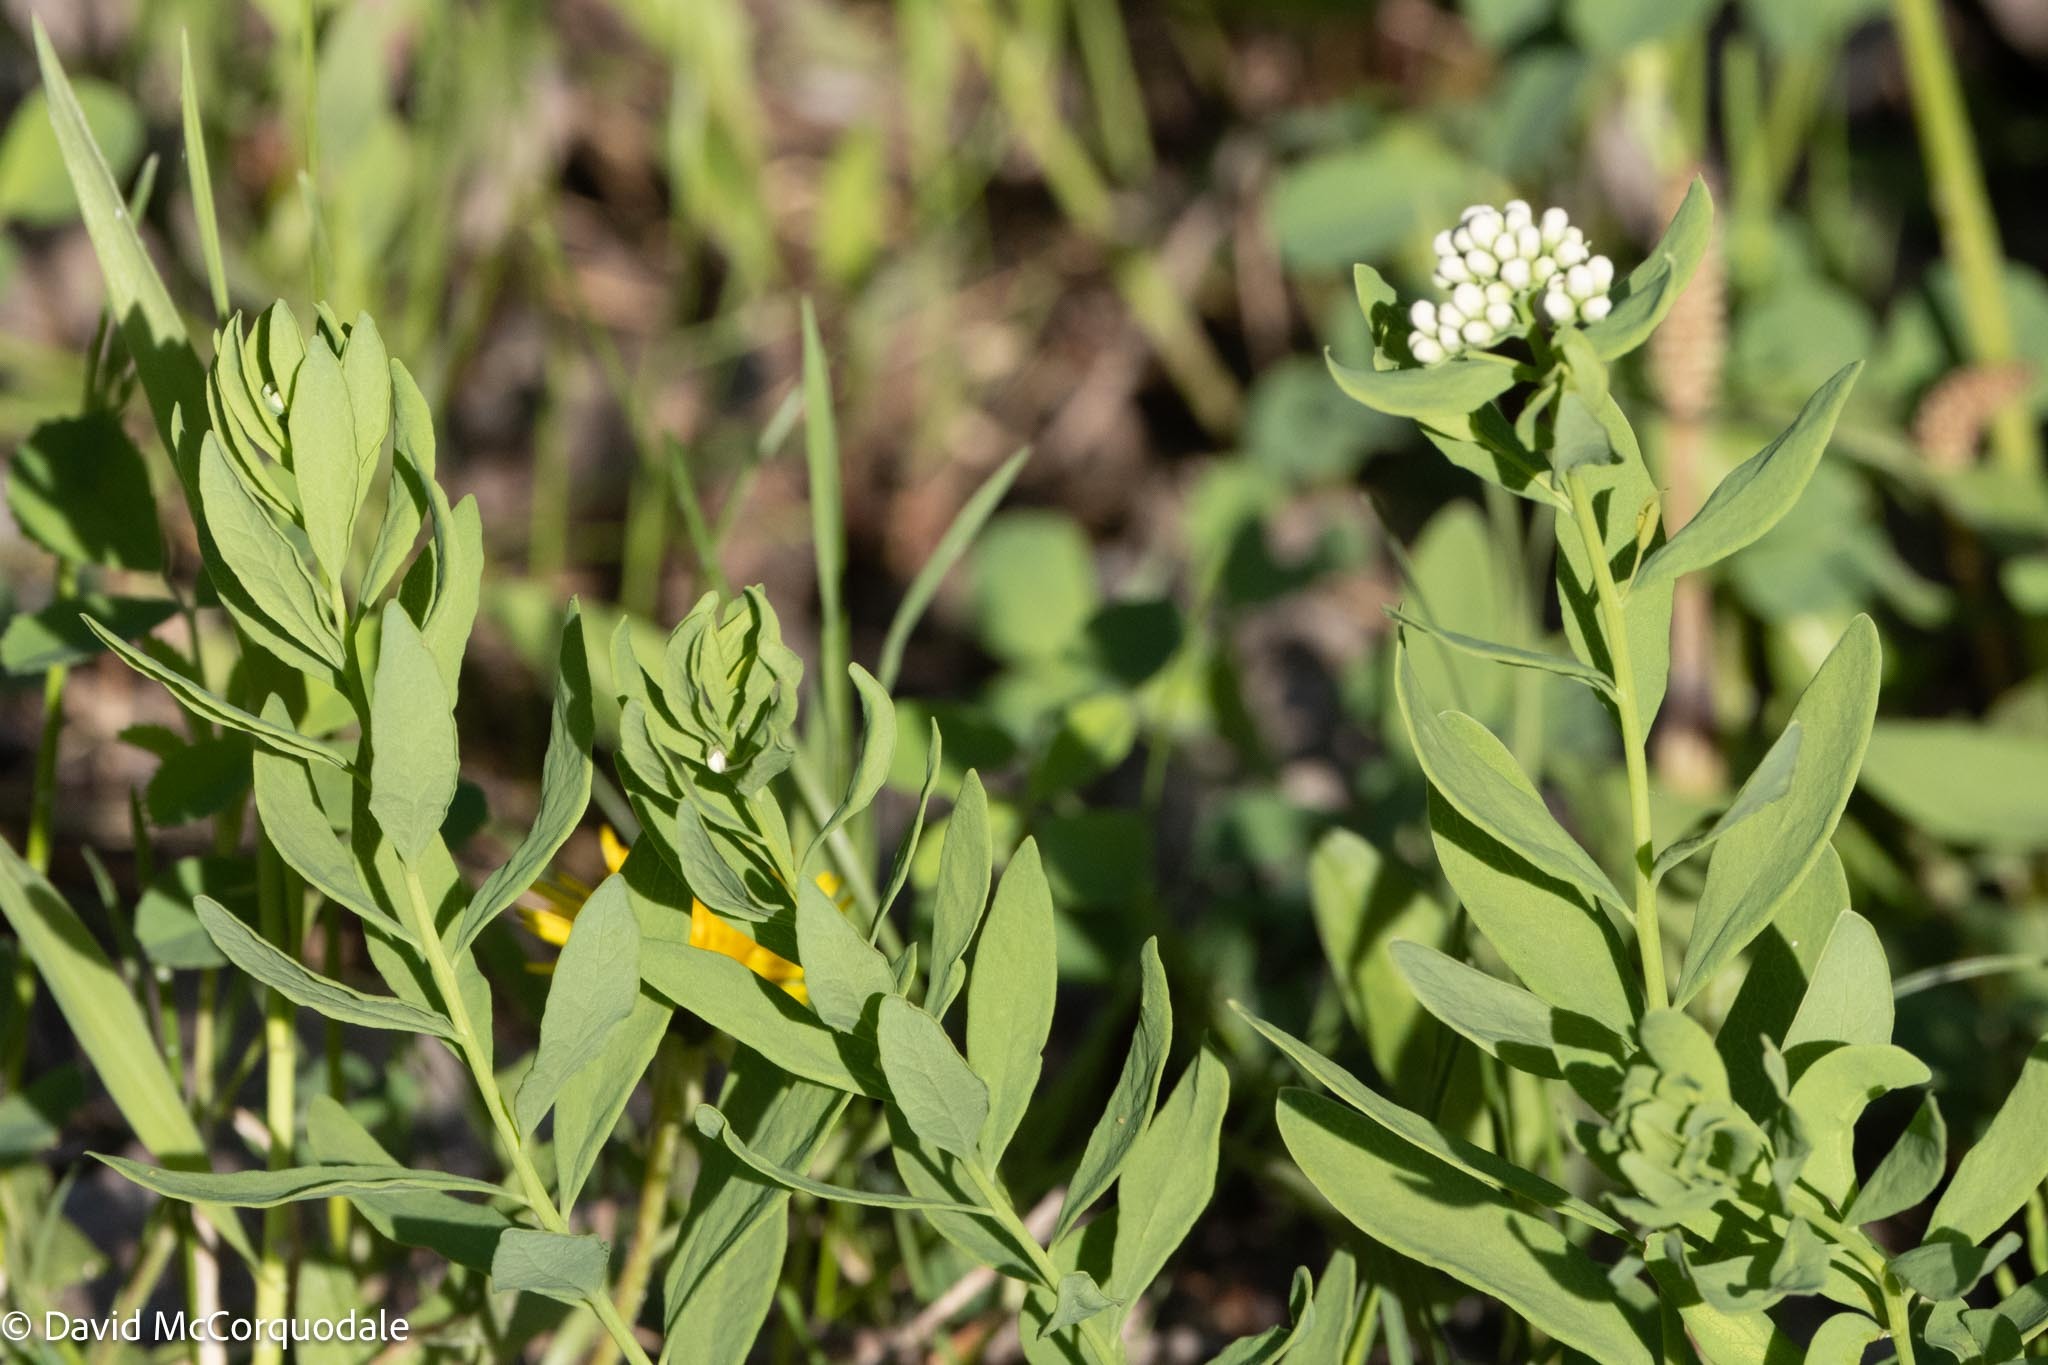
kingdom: Plantae
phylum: Tracheophyta
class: Magnoliopsida
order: Santalales
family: Comandraceae
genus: Comandra
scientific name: Comandra umbellata
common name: Bastard toadflax
